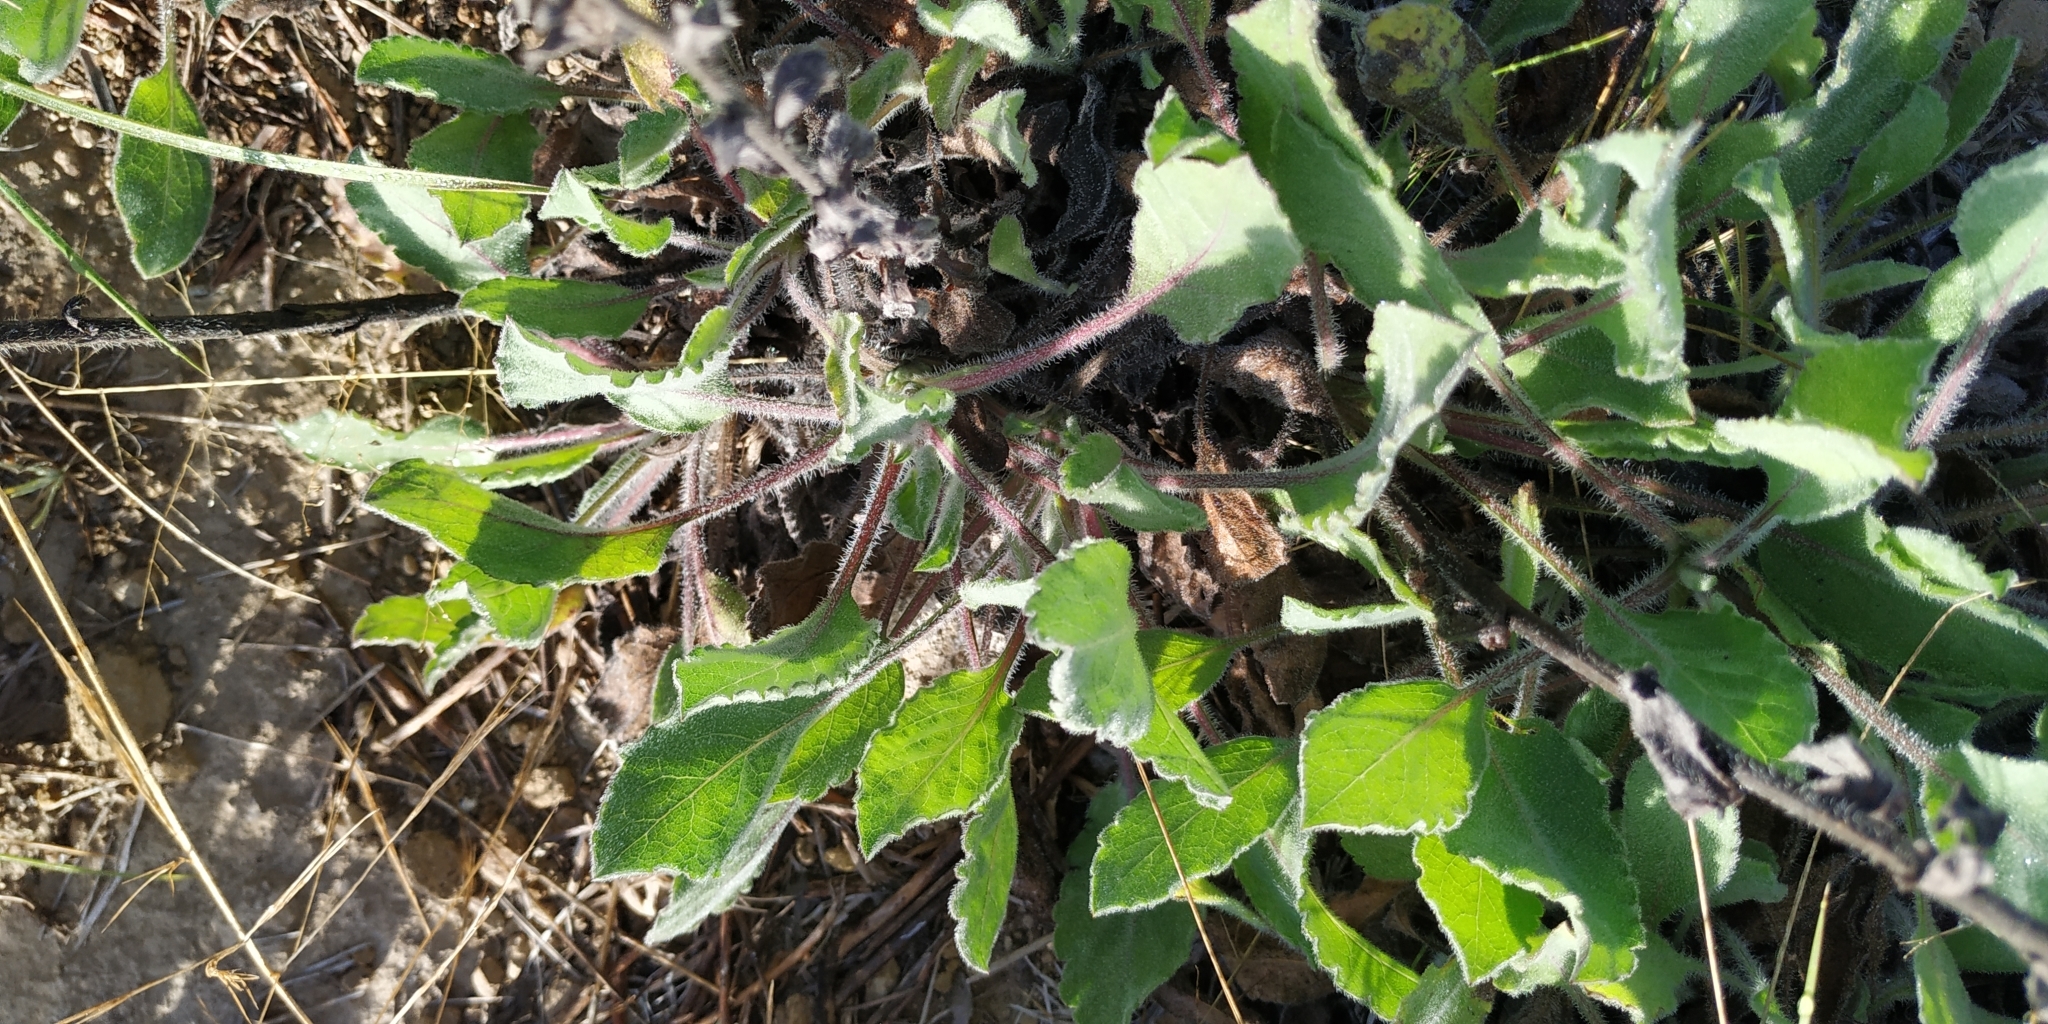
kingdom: Plantae
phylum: Tracheophyta
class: Magnoliopsida
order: Asterales
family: Asteraceae
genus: Heterotheca
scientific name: Heterotheca inuloides
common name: False arnica
